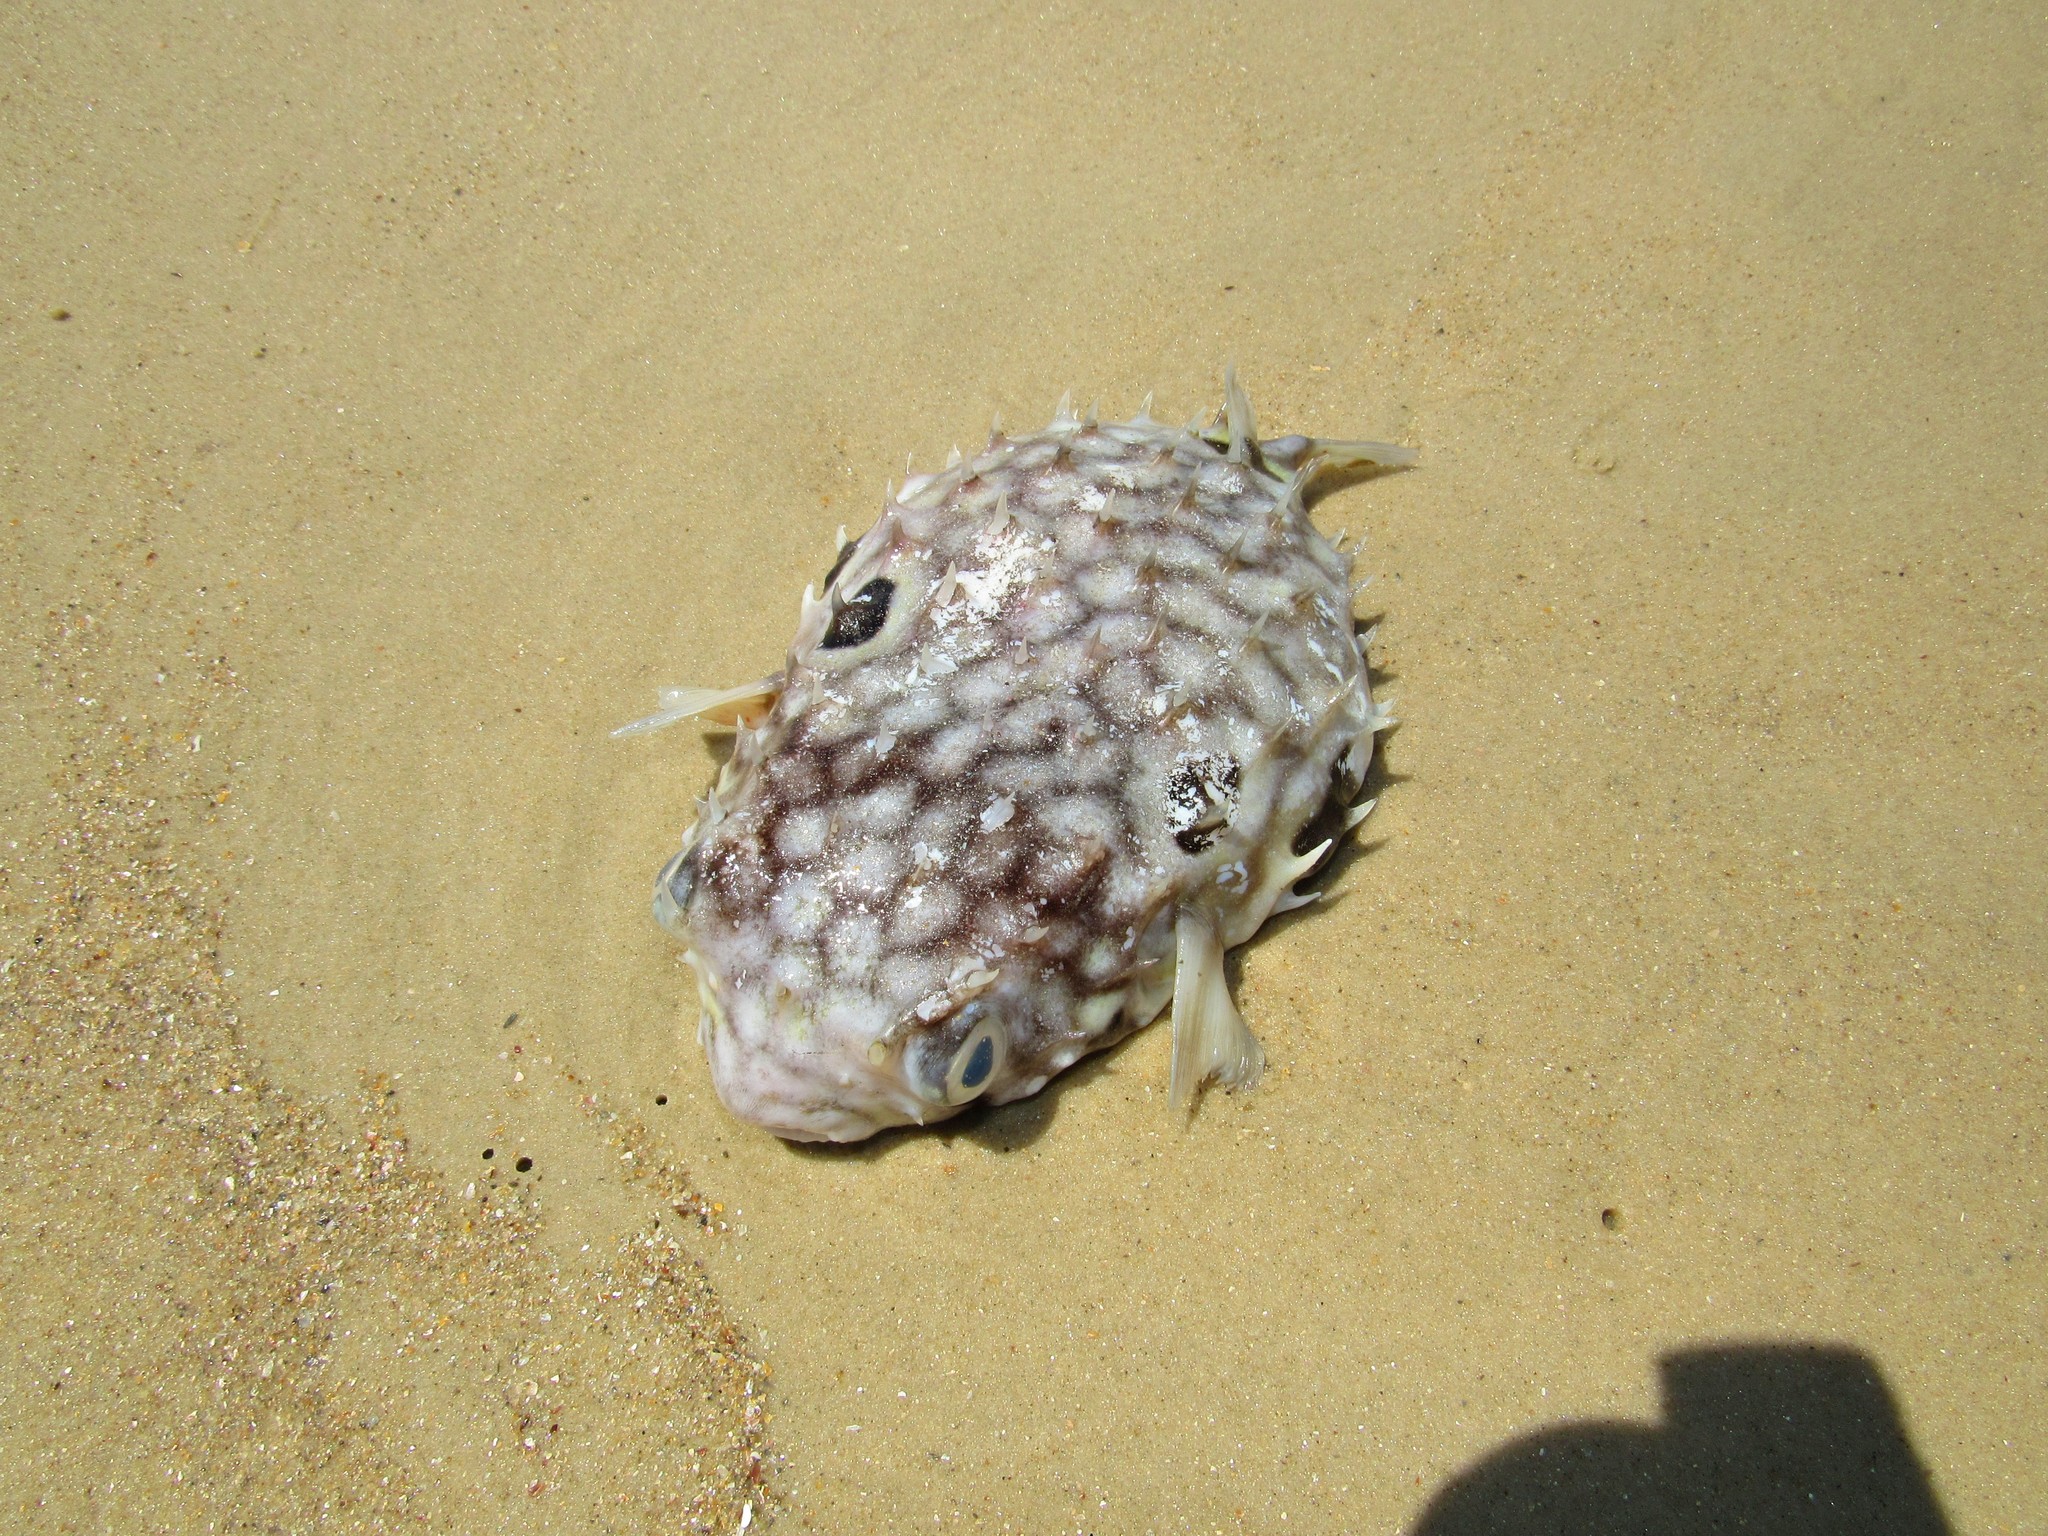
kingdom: Animalia
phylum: Chordata
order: Tetraodontiformes
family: Diodontidae
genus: Chilomycterus
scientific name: Chilomycterus spinosus
